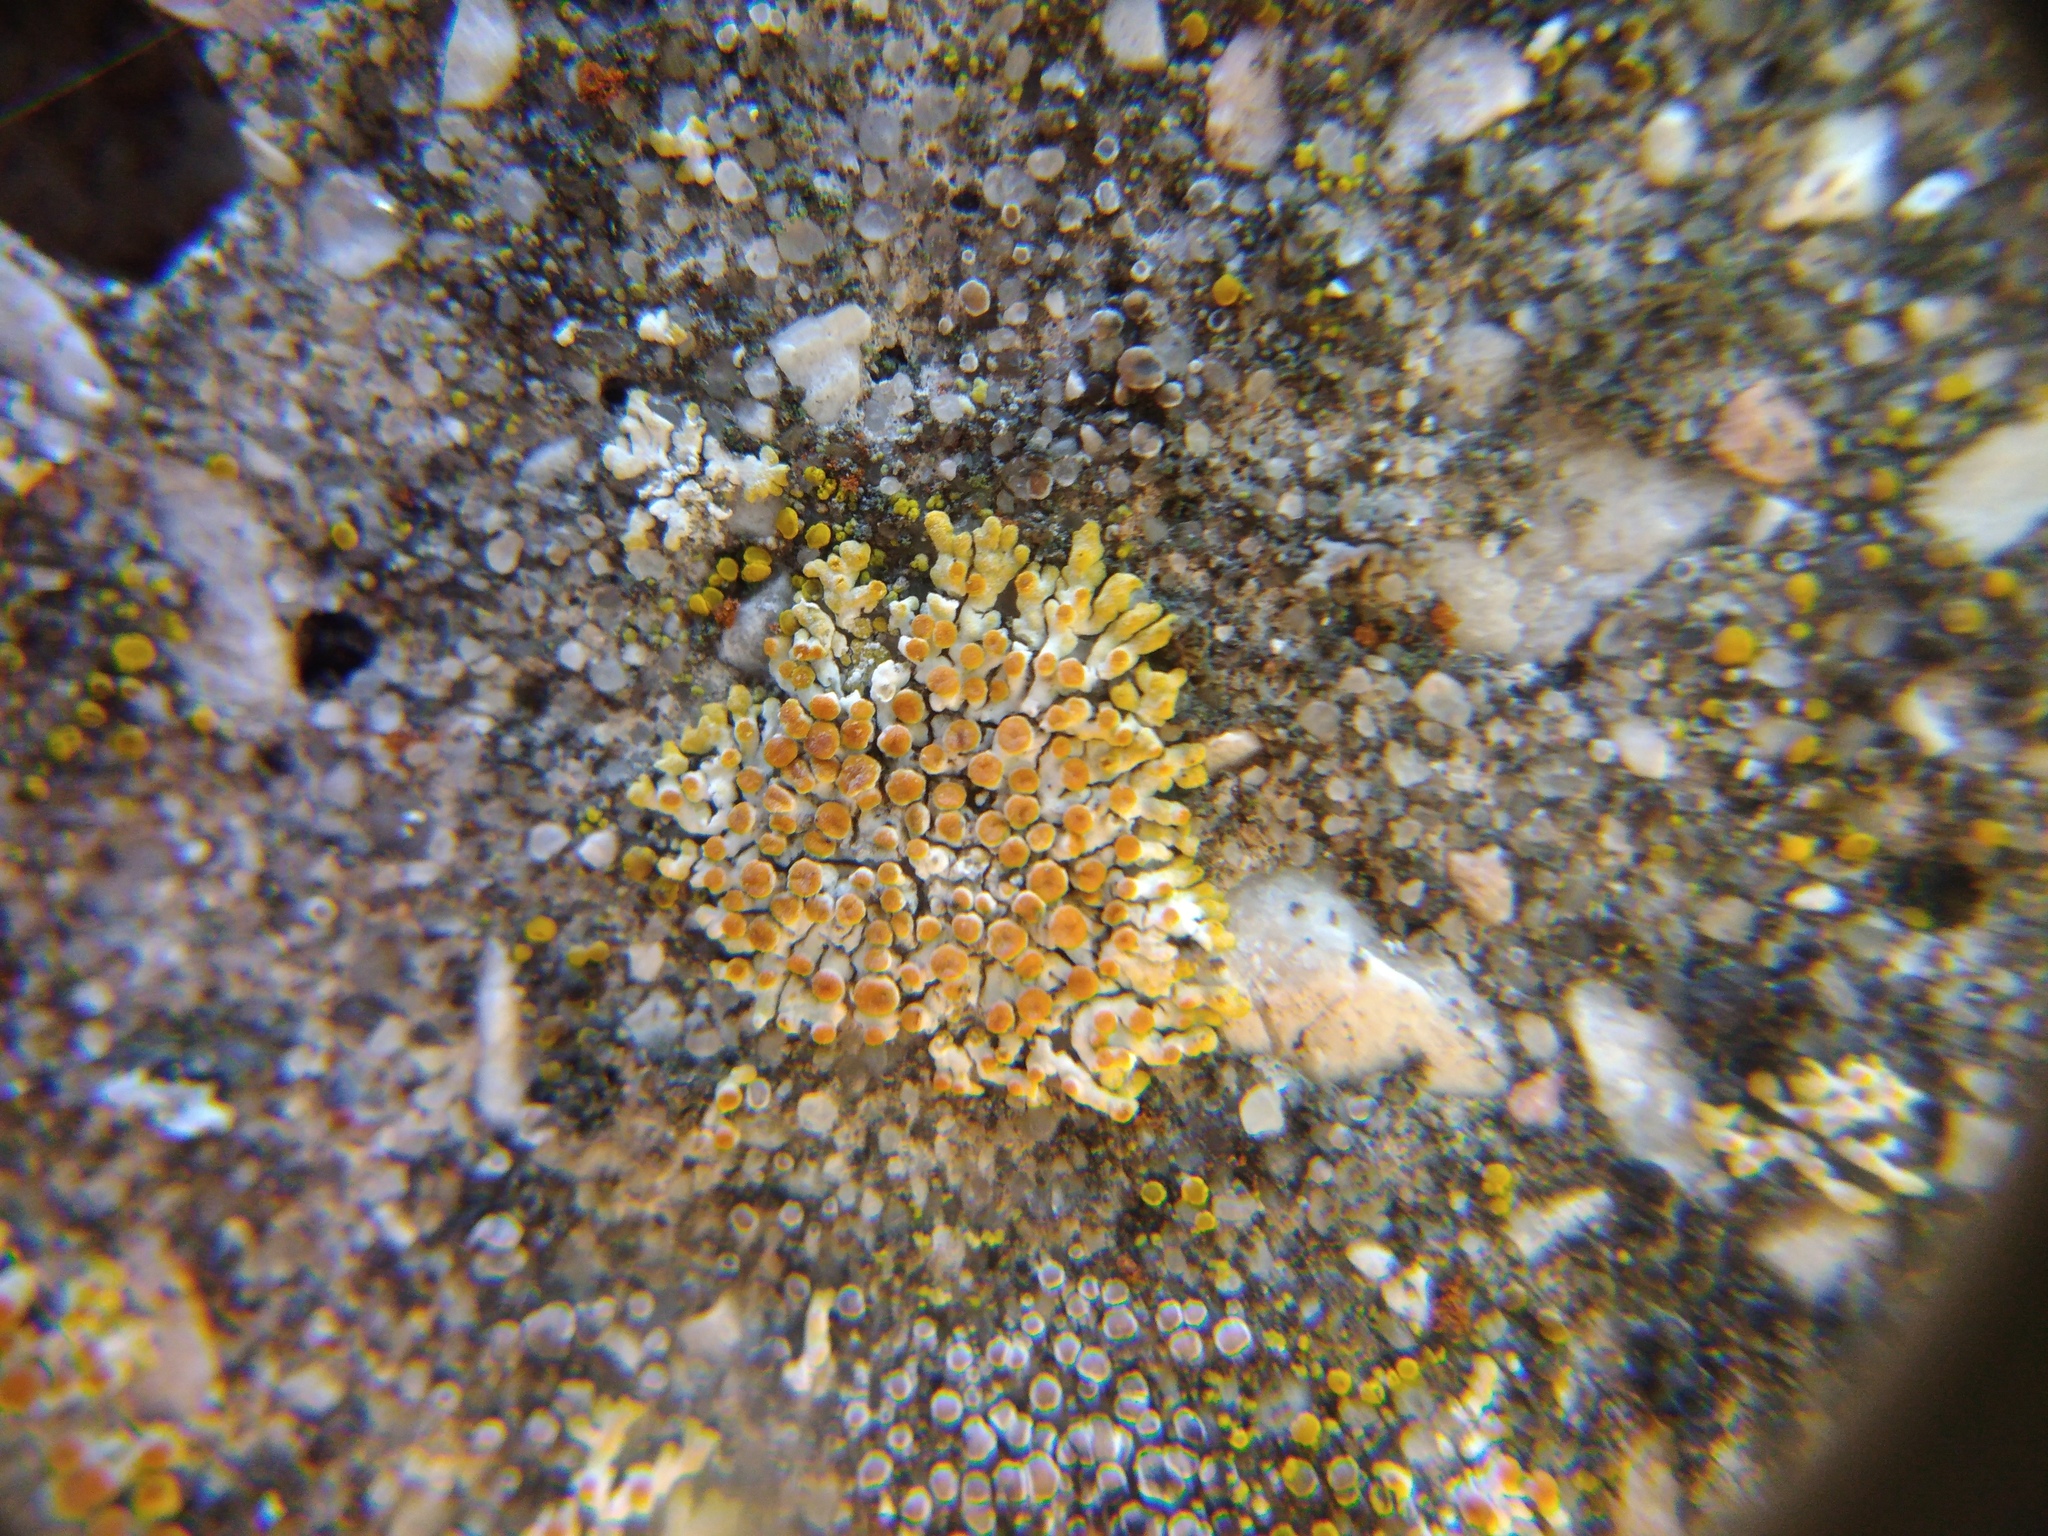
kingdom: Fungi
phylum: Ascomycota
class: Lecanoromycetes
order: Teloschistales
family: Teloschistaceae
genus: Calogaya
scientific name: Calogaya pusilla
